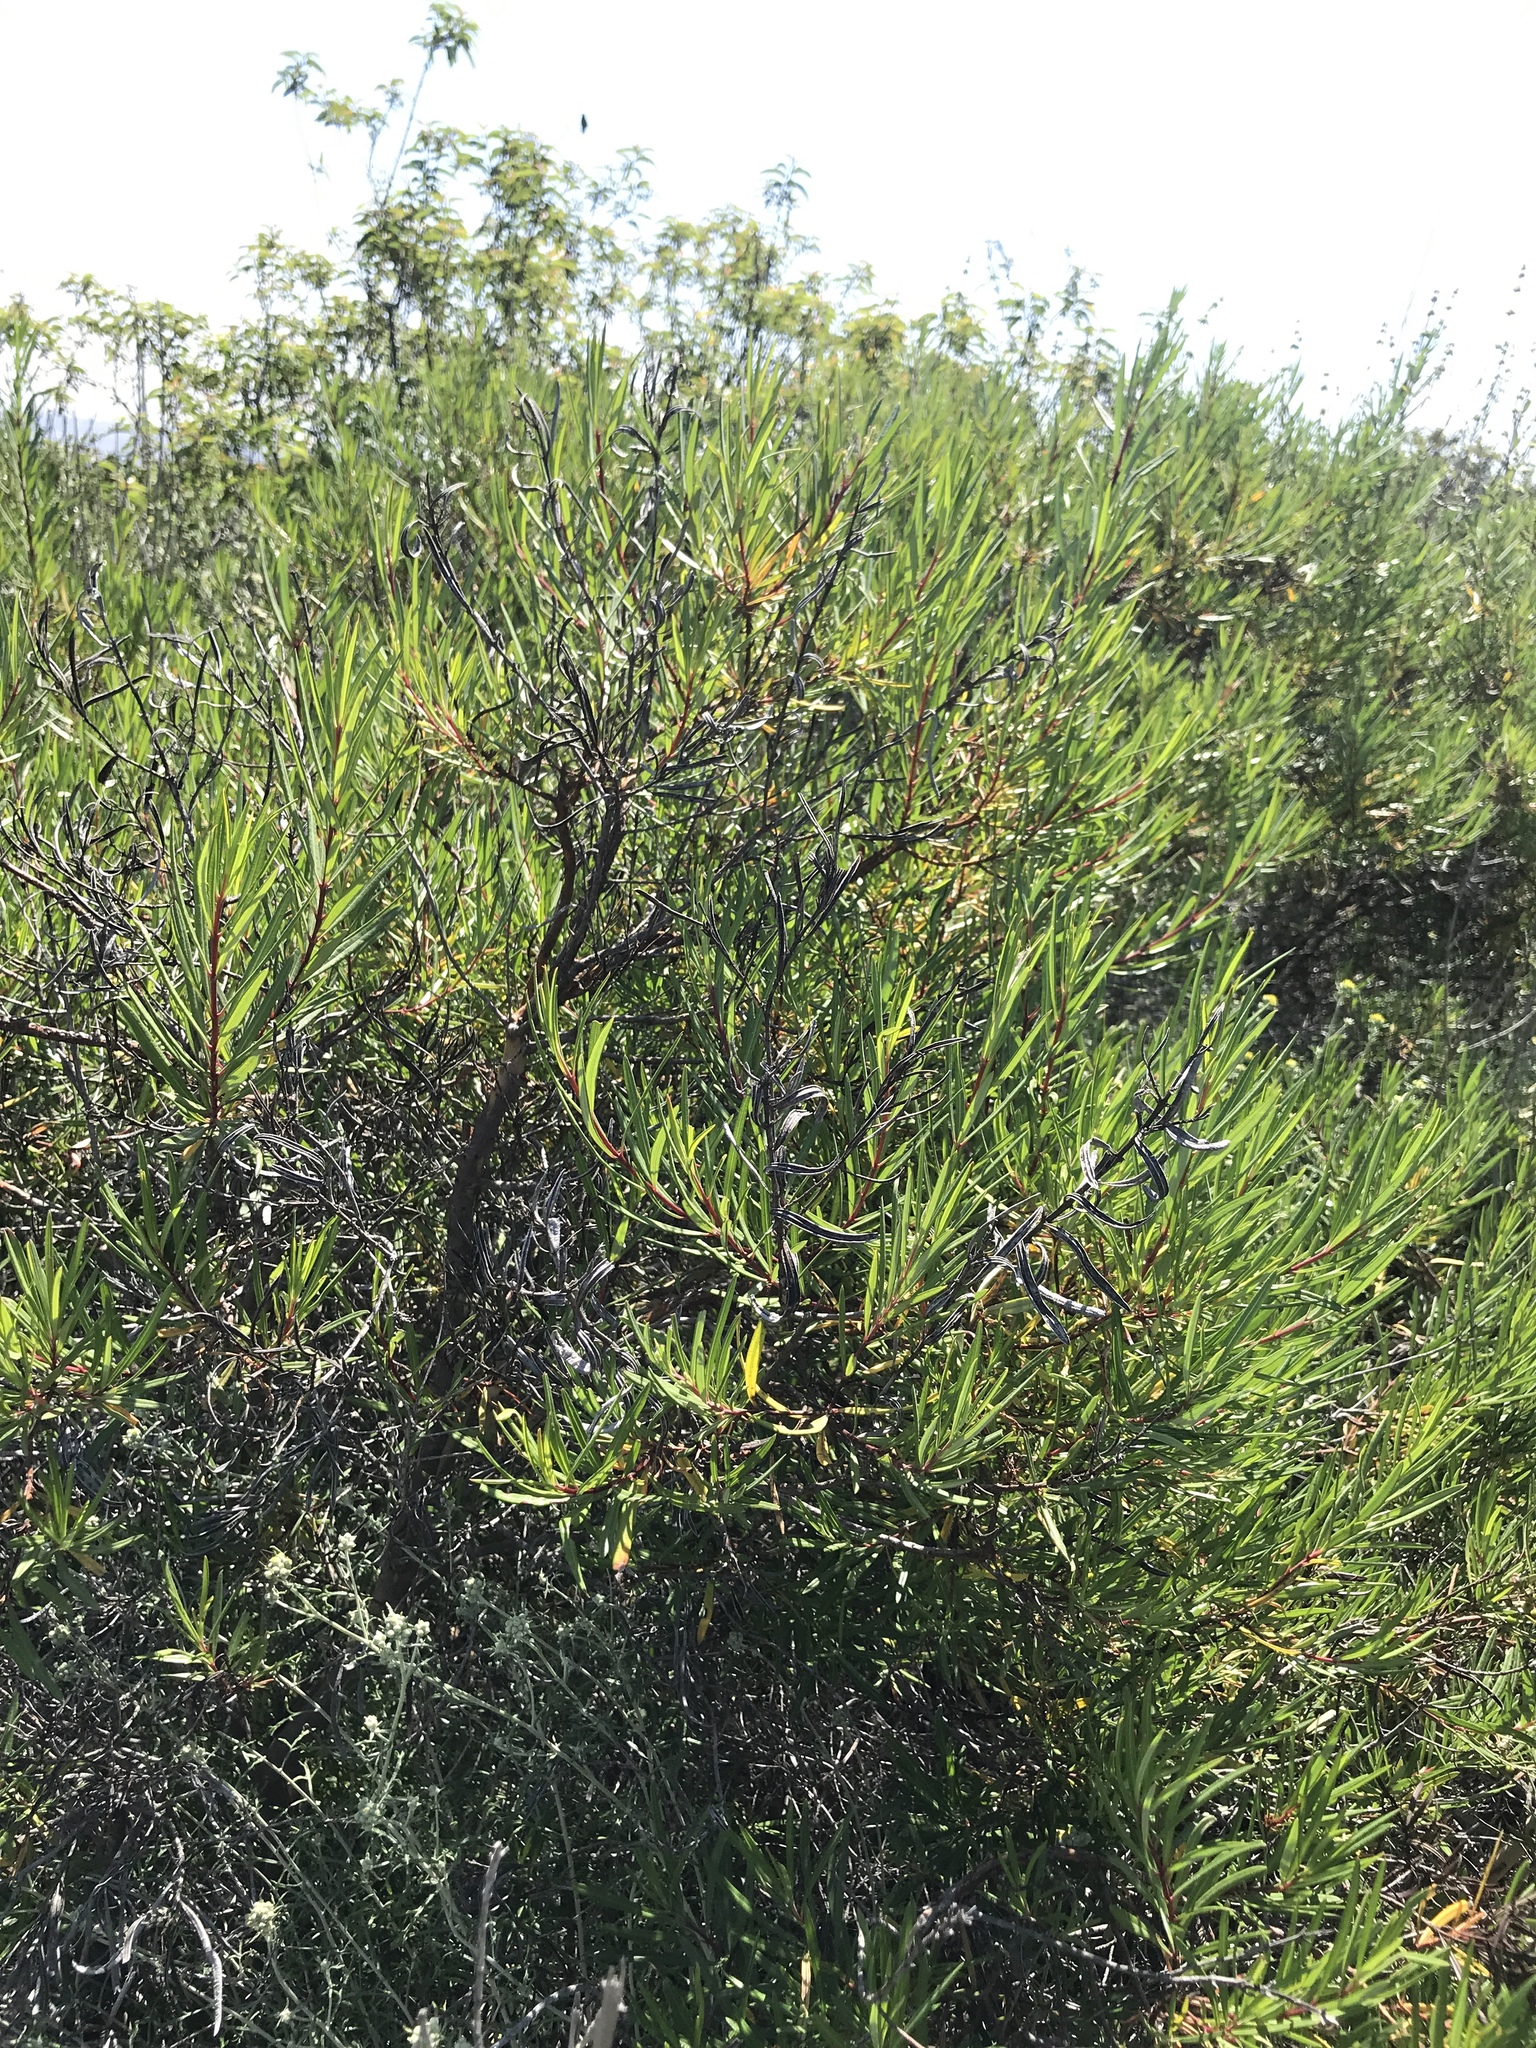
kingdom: Plantae
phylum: Tracheophyta
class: Magnoliopsida
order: Ericales
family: Ericaceae
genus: Ornithostaphylos
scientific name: Ornithostaphylos oppositifolia
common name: Baja california birdbush
